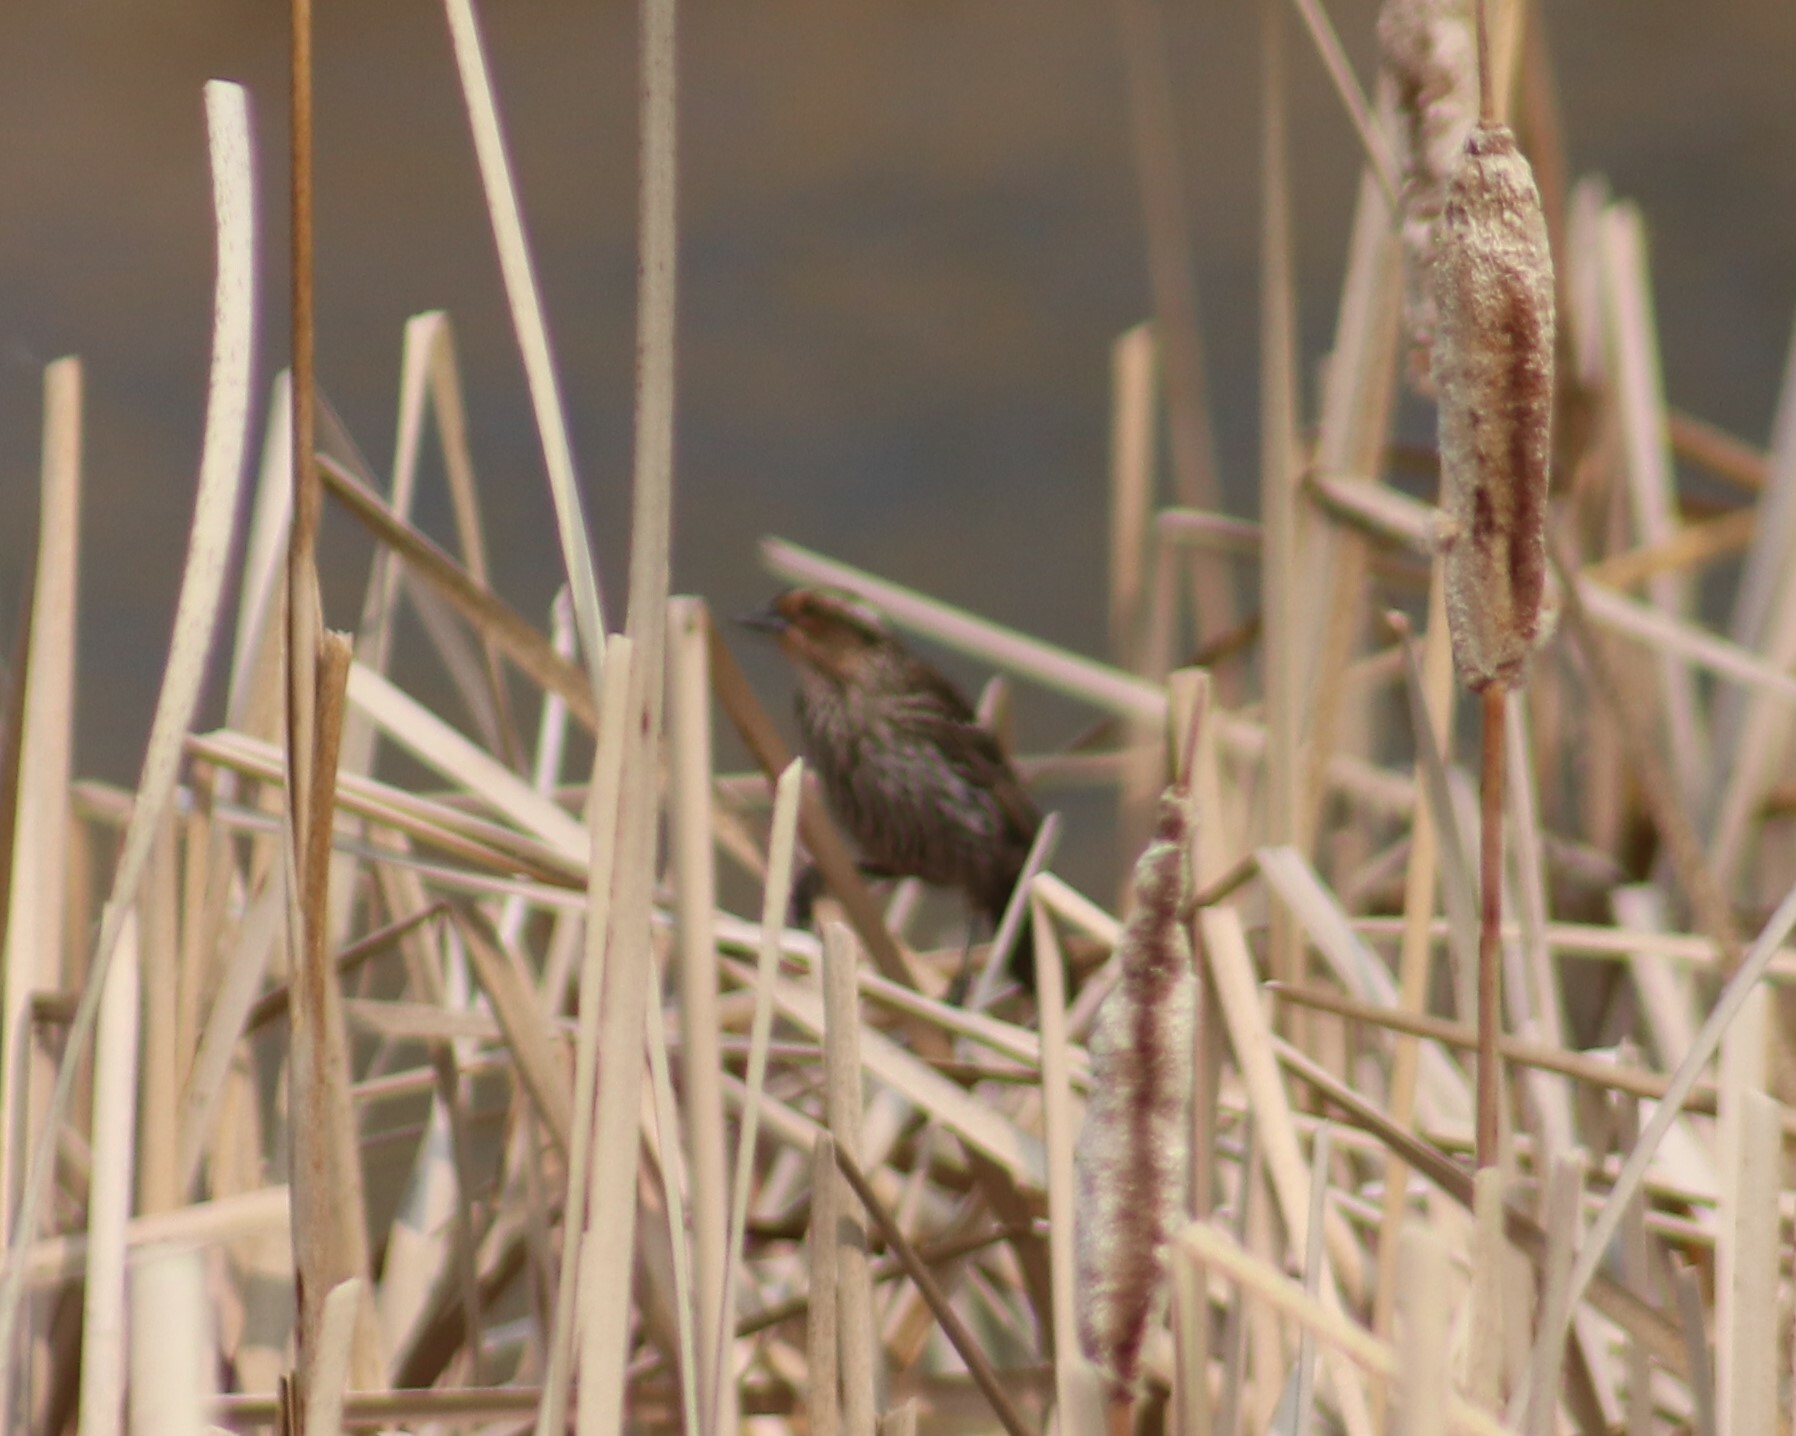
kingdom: Animalia
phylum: Chordata
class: Aves
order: Passeriformes
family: Icteridae
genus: Agelaius
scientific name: Agelaius phoeniceus
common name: Red-winged blackbird
